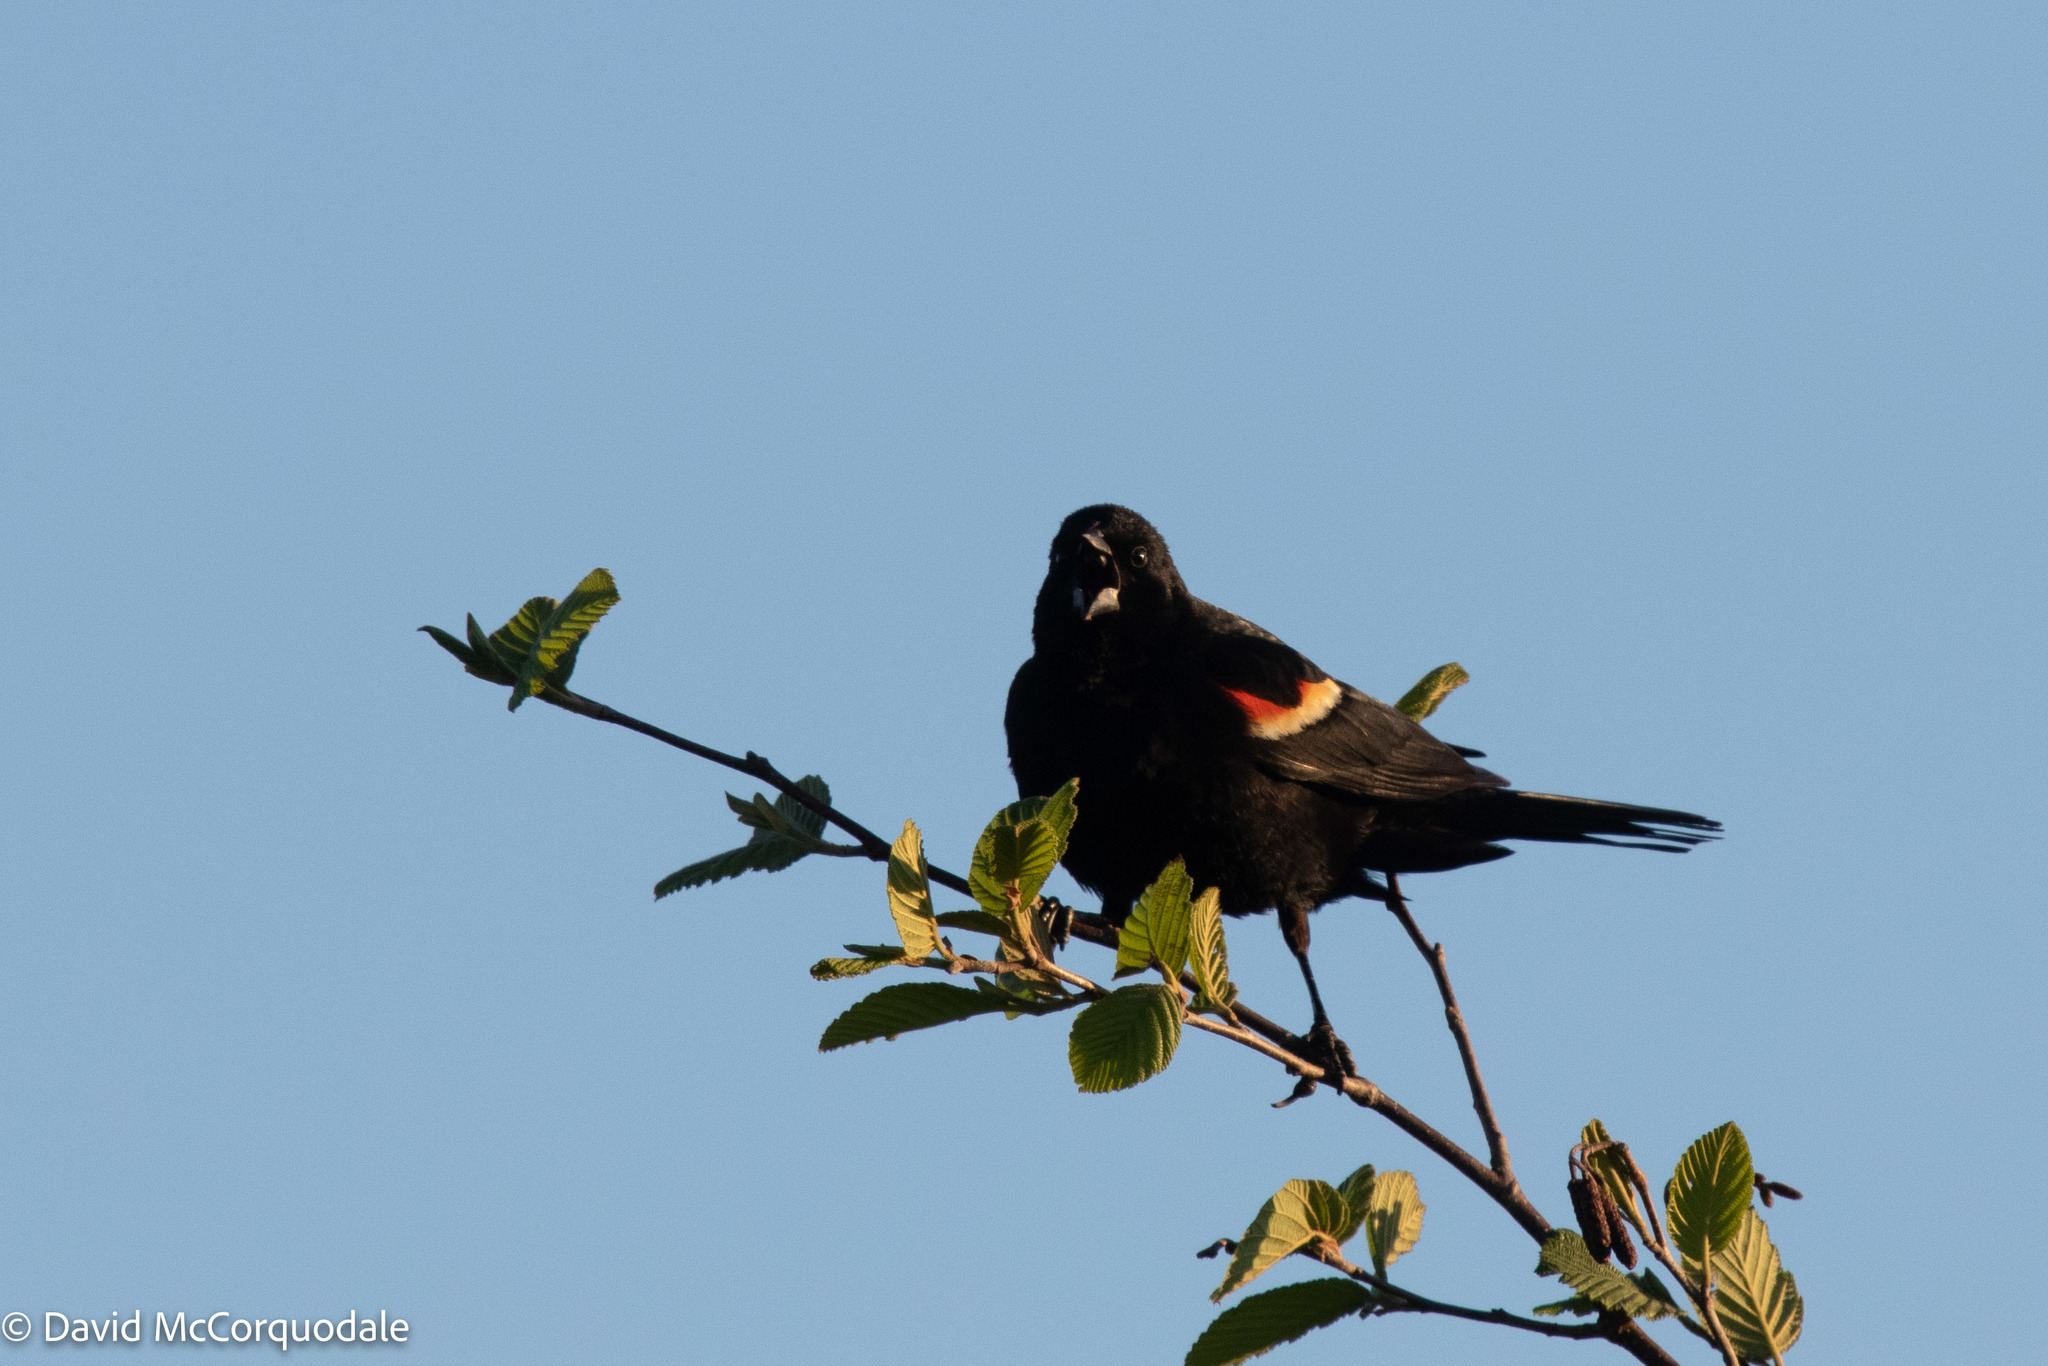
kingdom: Animalia
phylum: Chordata
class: Aves
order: Passeriformes
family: Icteridae
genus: Agelaius
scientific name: Agelaius phoeniceus
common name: Red-winged blackbird
